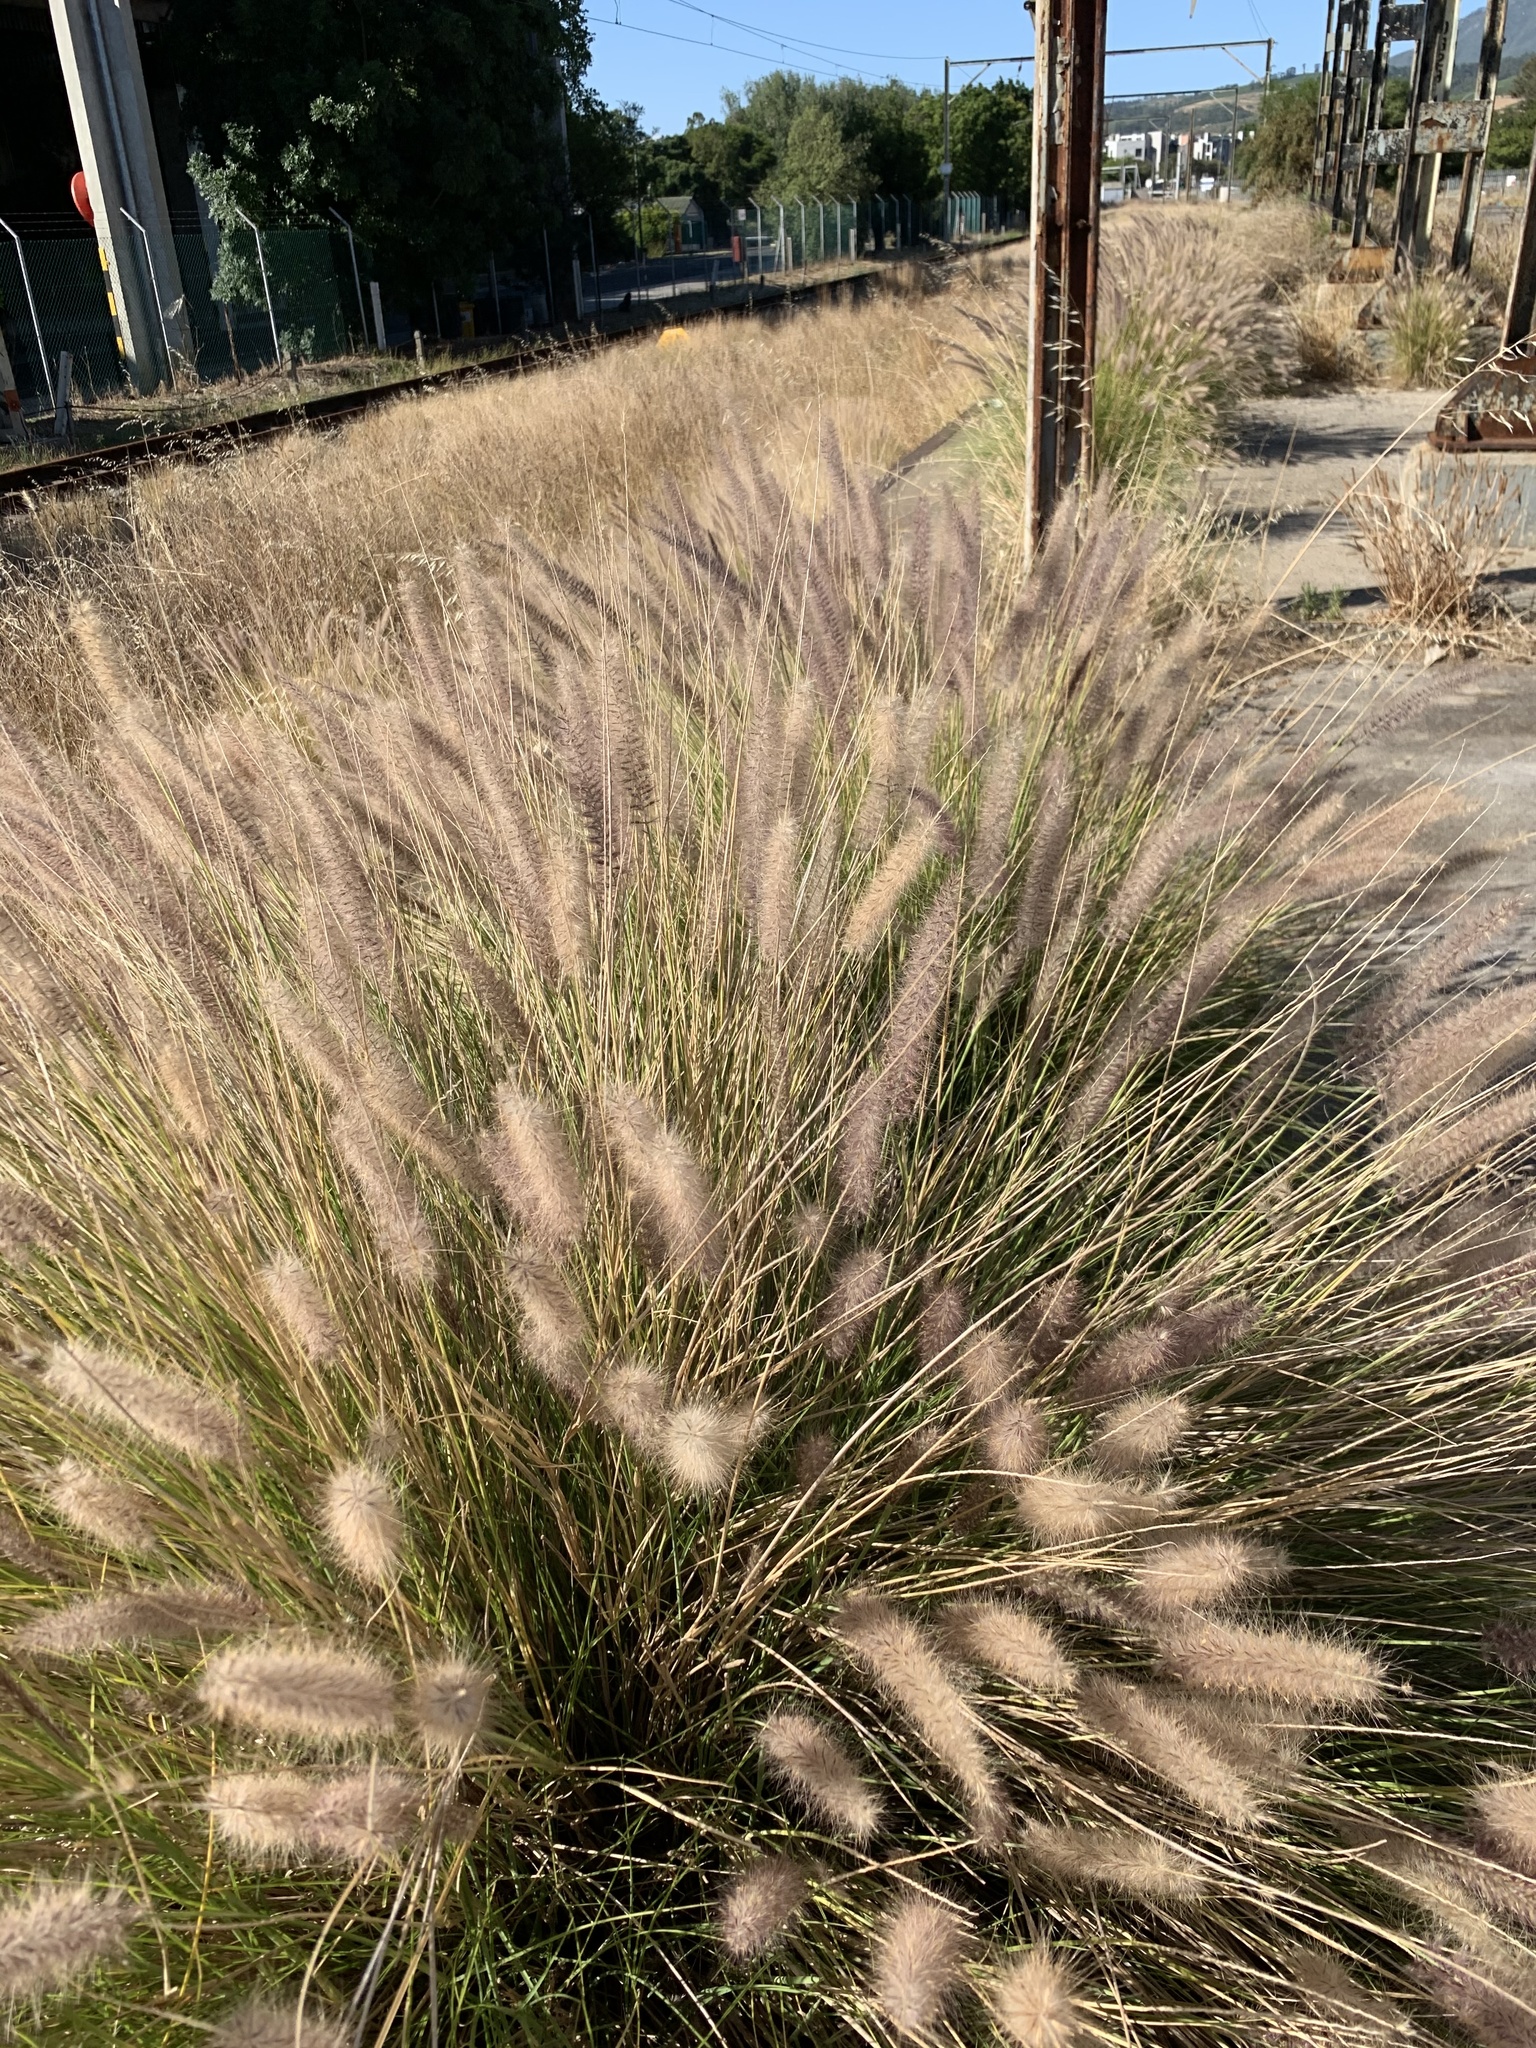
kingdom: Plantae
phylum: Tracheophyta
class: Liliopsida
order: Poales
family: Poaceae
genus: Cenchrus
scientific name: Cenchrus setaceus
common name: Crimson fountaingrass
